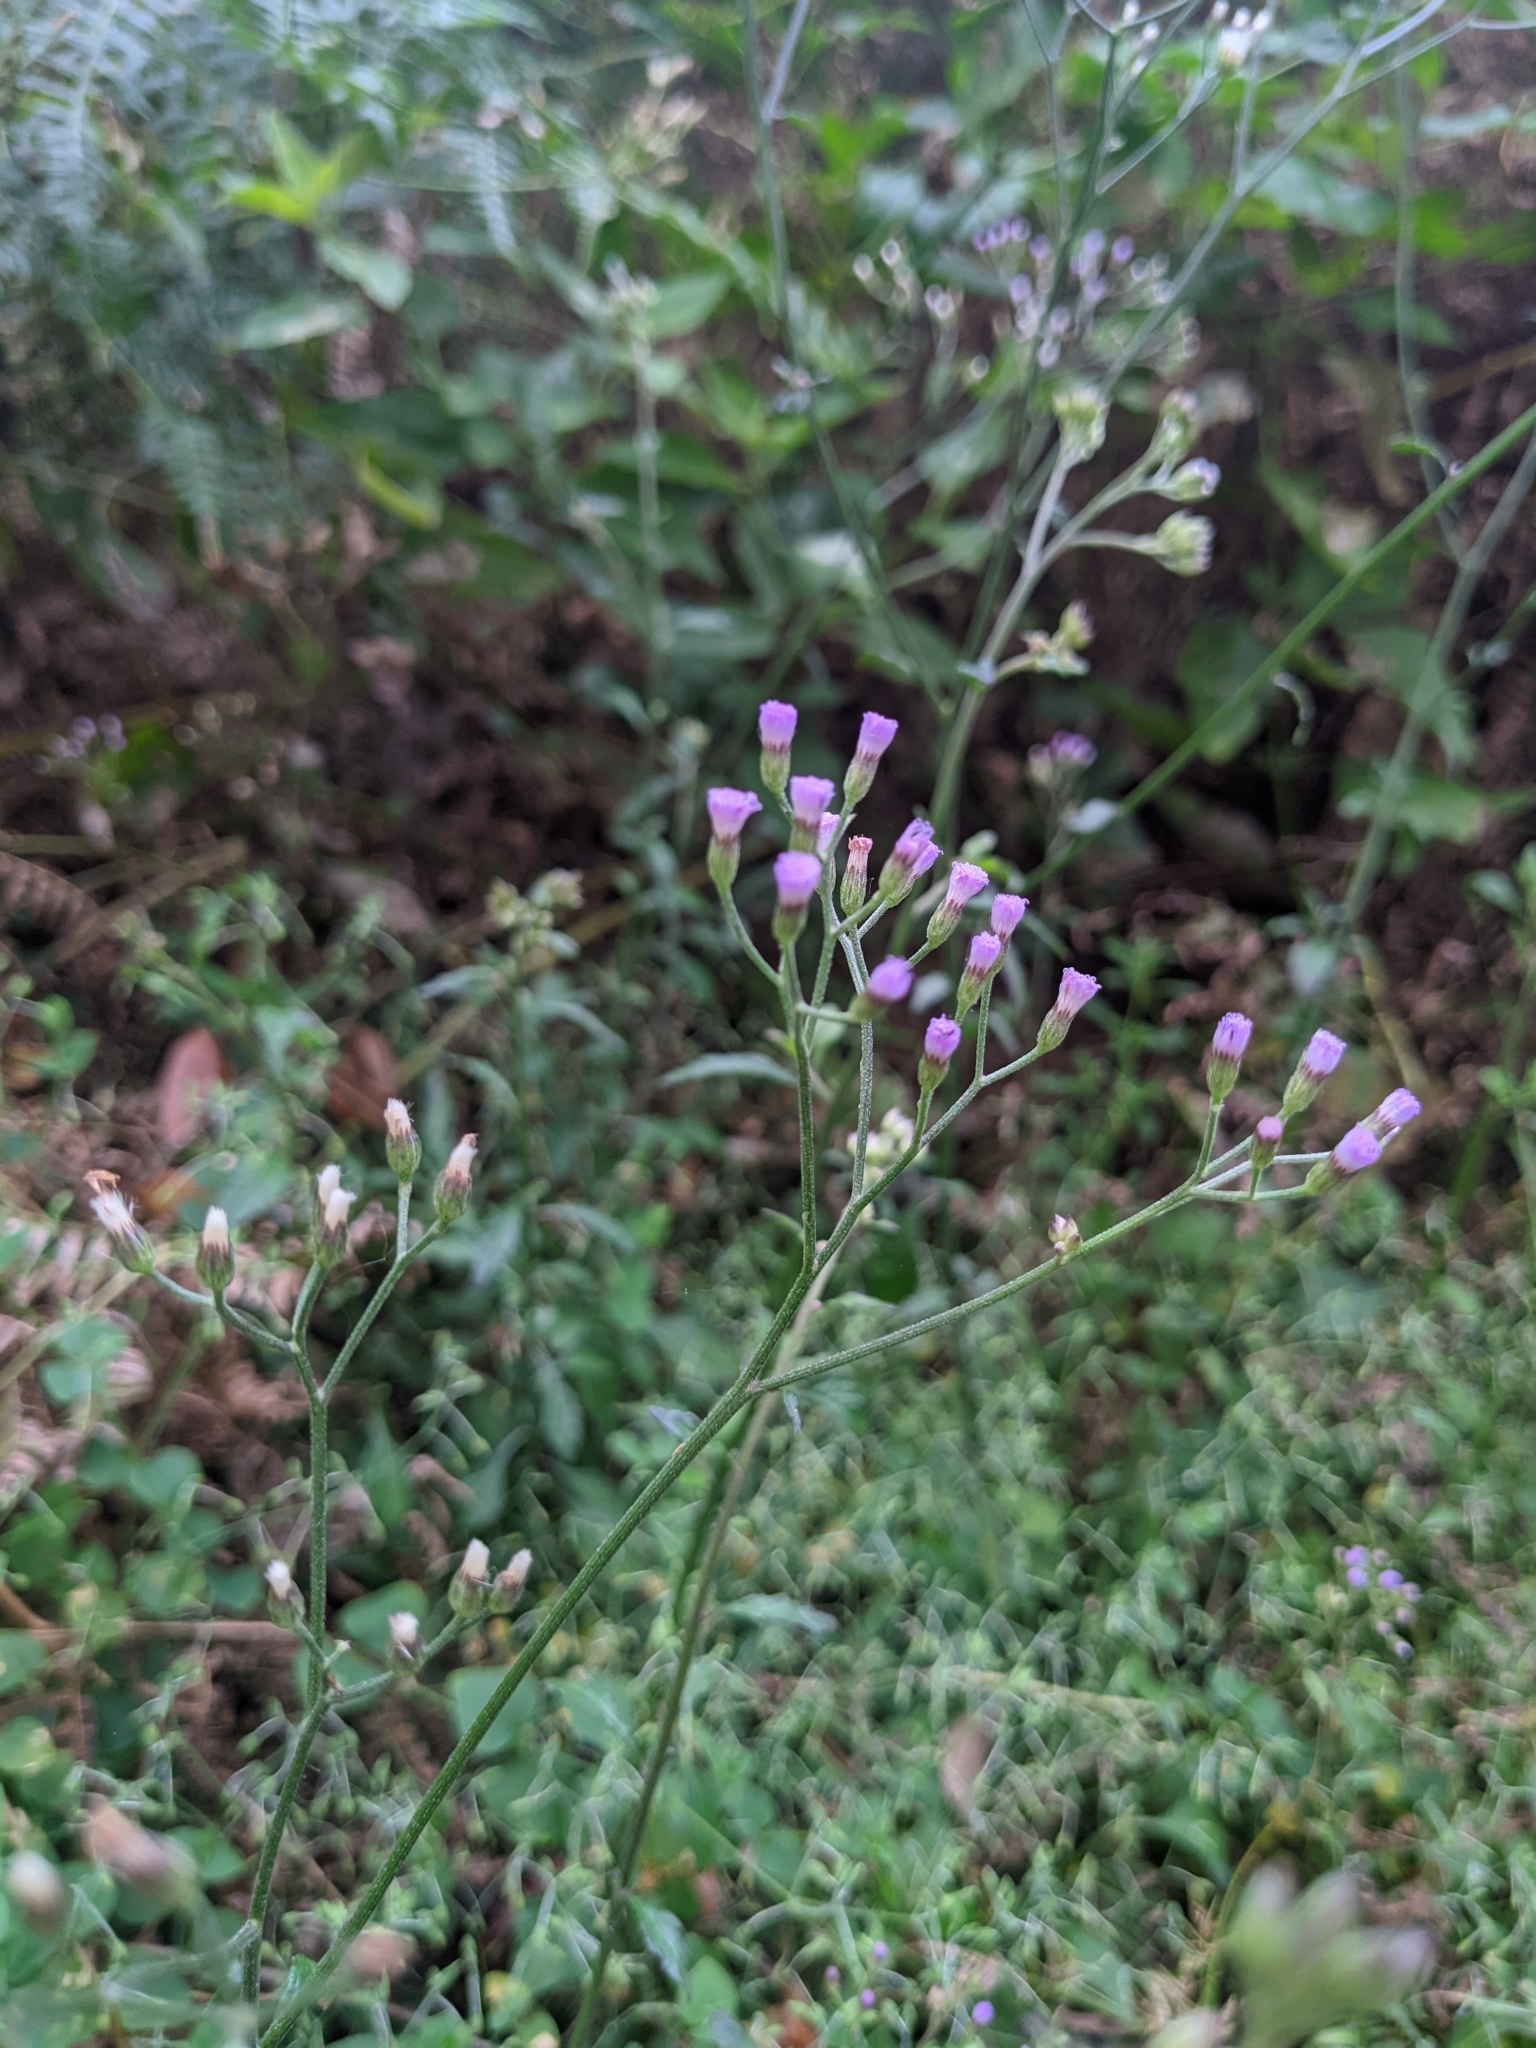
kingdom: Plantae
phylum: Tracheophyta
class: Magnoliopsida
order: Asterales
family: Asteraceae
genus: Cyanthillium
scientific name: Cyanthillium cinereum
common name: Little ironweed
